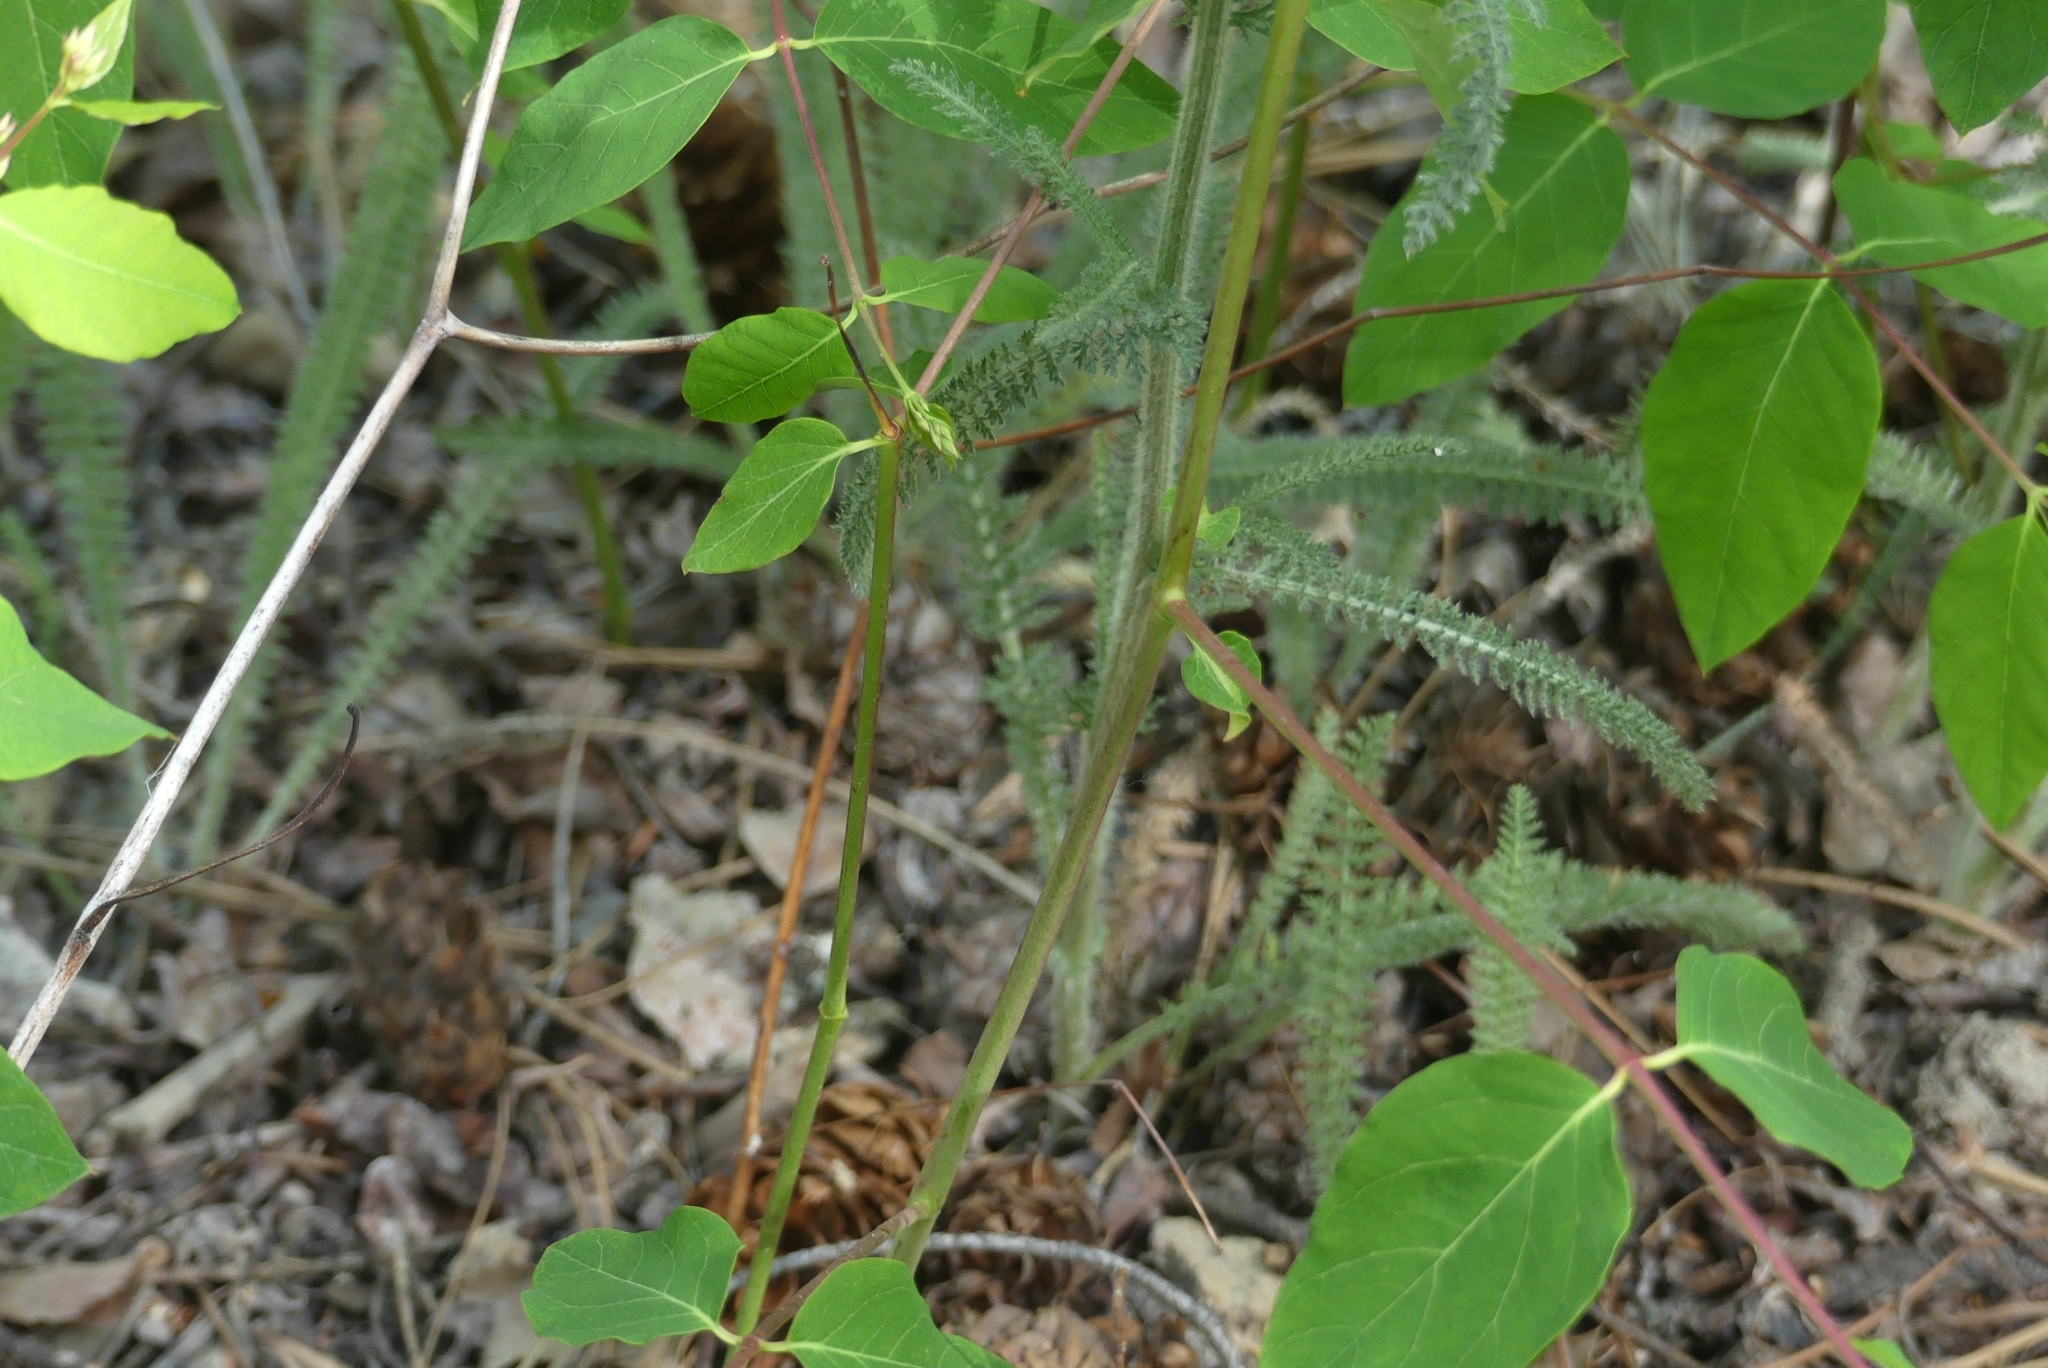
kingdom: Plantae
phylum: Tracheophyta
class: Magnoliopsida
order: Asterales
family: Asteraceae
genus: Achillea
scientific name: Achillea millefolium
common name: Yarrow
